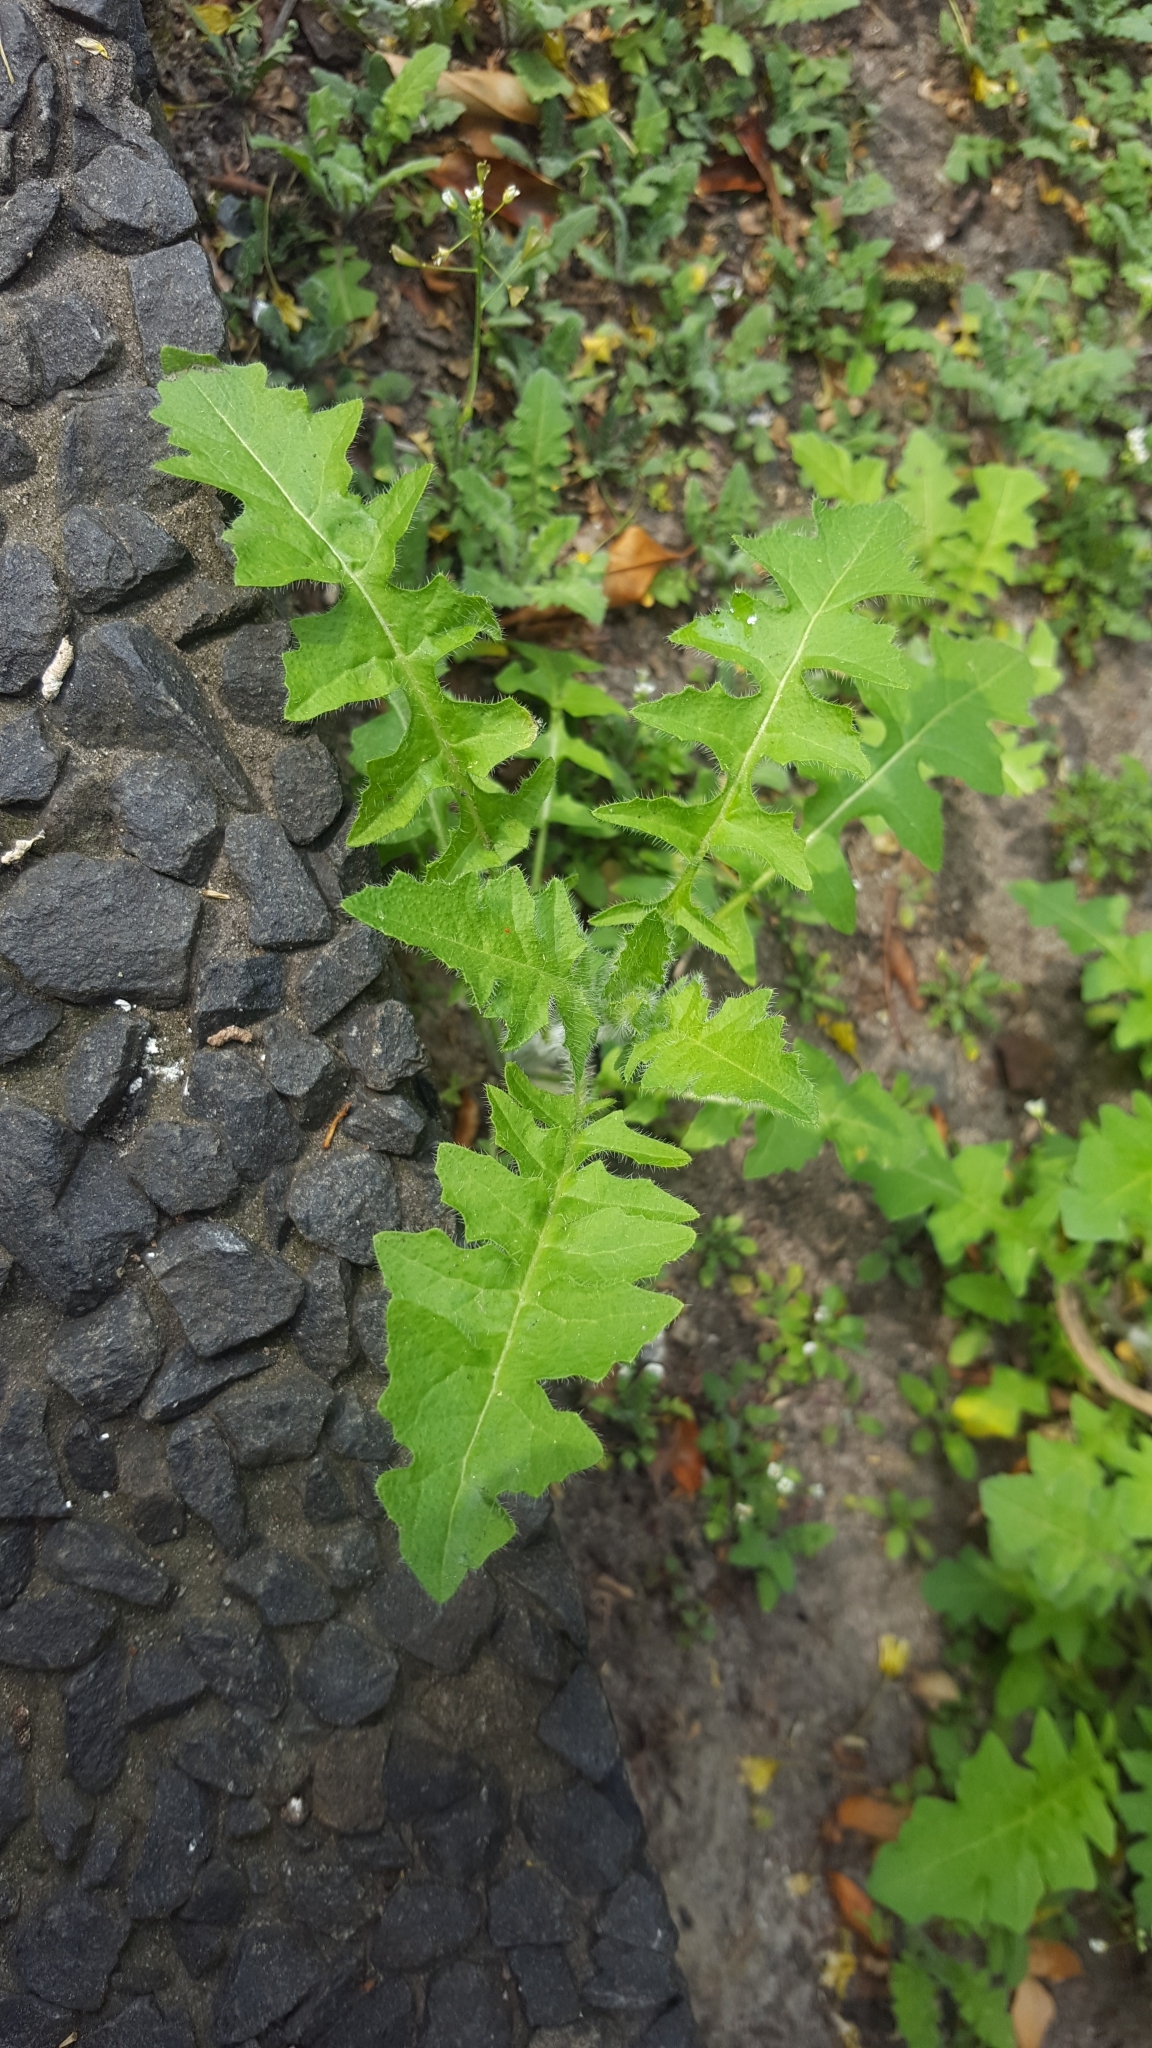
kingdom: Plantae
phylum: Tracheophyta
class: Magnoliopsida
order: Brassicales
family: Brassicaceae
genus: Sisymbrium
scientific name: Sisymbrium loeselii
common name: False london-rocket
